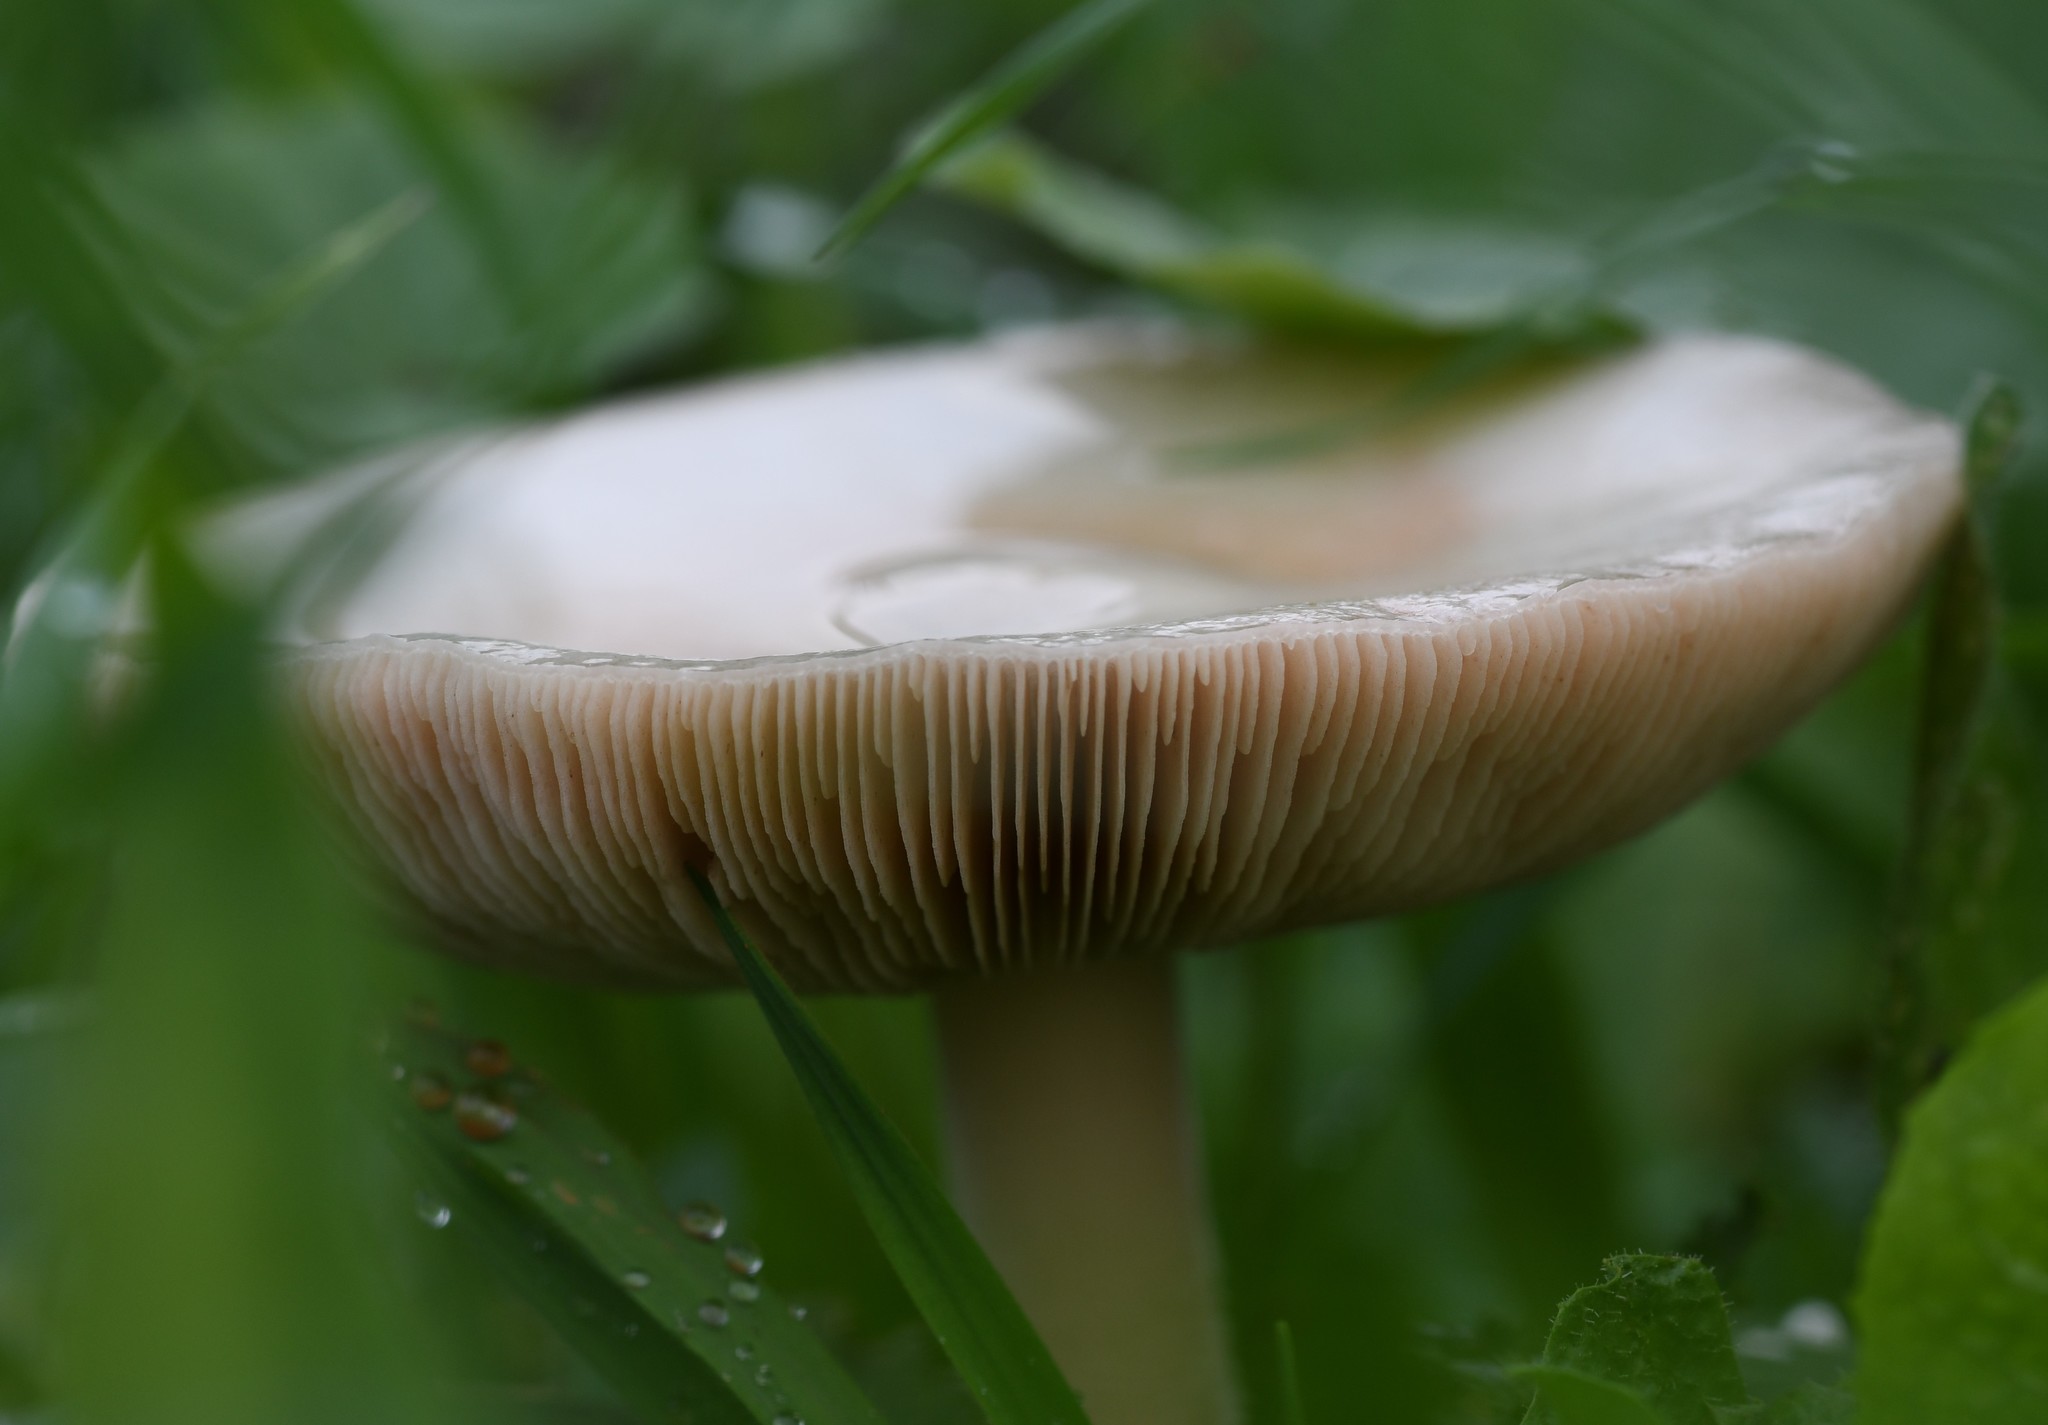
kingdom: Fungi
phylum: Basidiomycota
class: Agaricomycetes
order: Agaricales
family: Pluteaceae
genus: Volvopluteus
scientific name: Volvopluteus gloiocephalus
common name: Stubble rosegill
